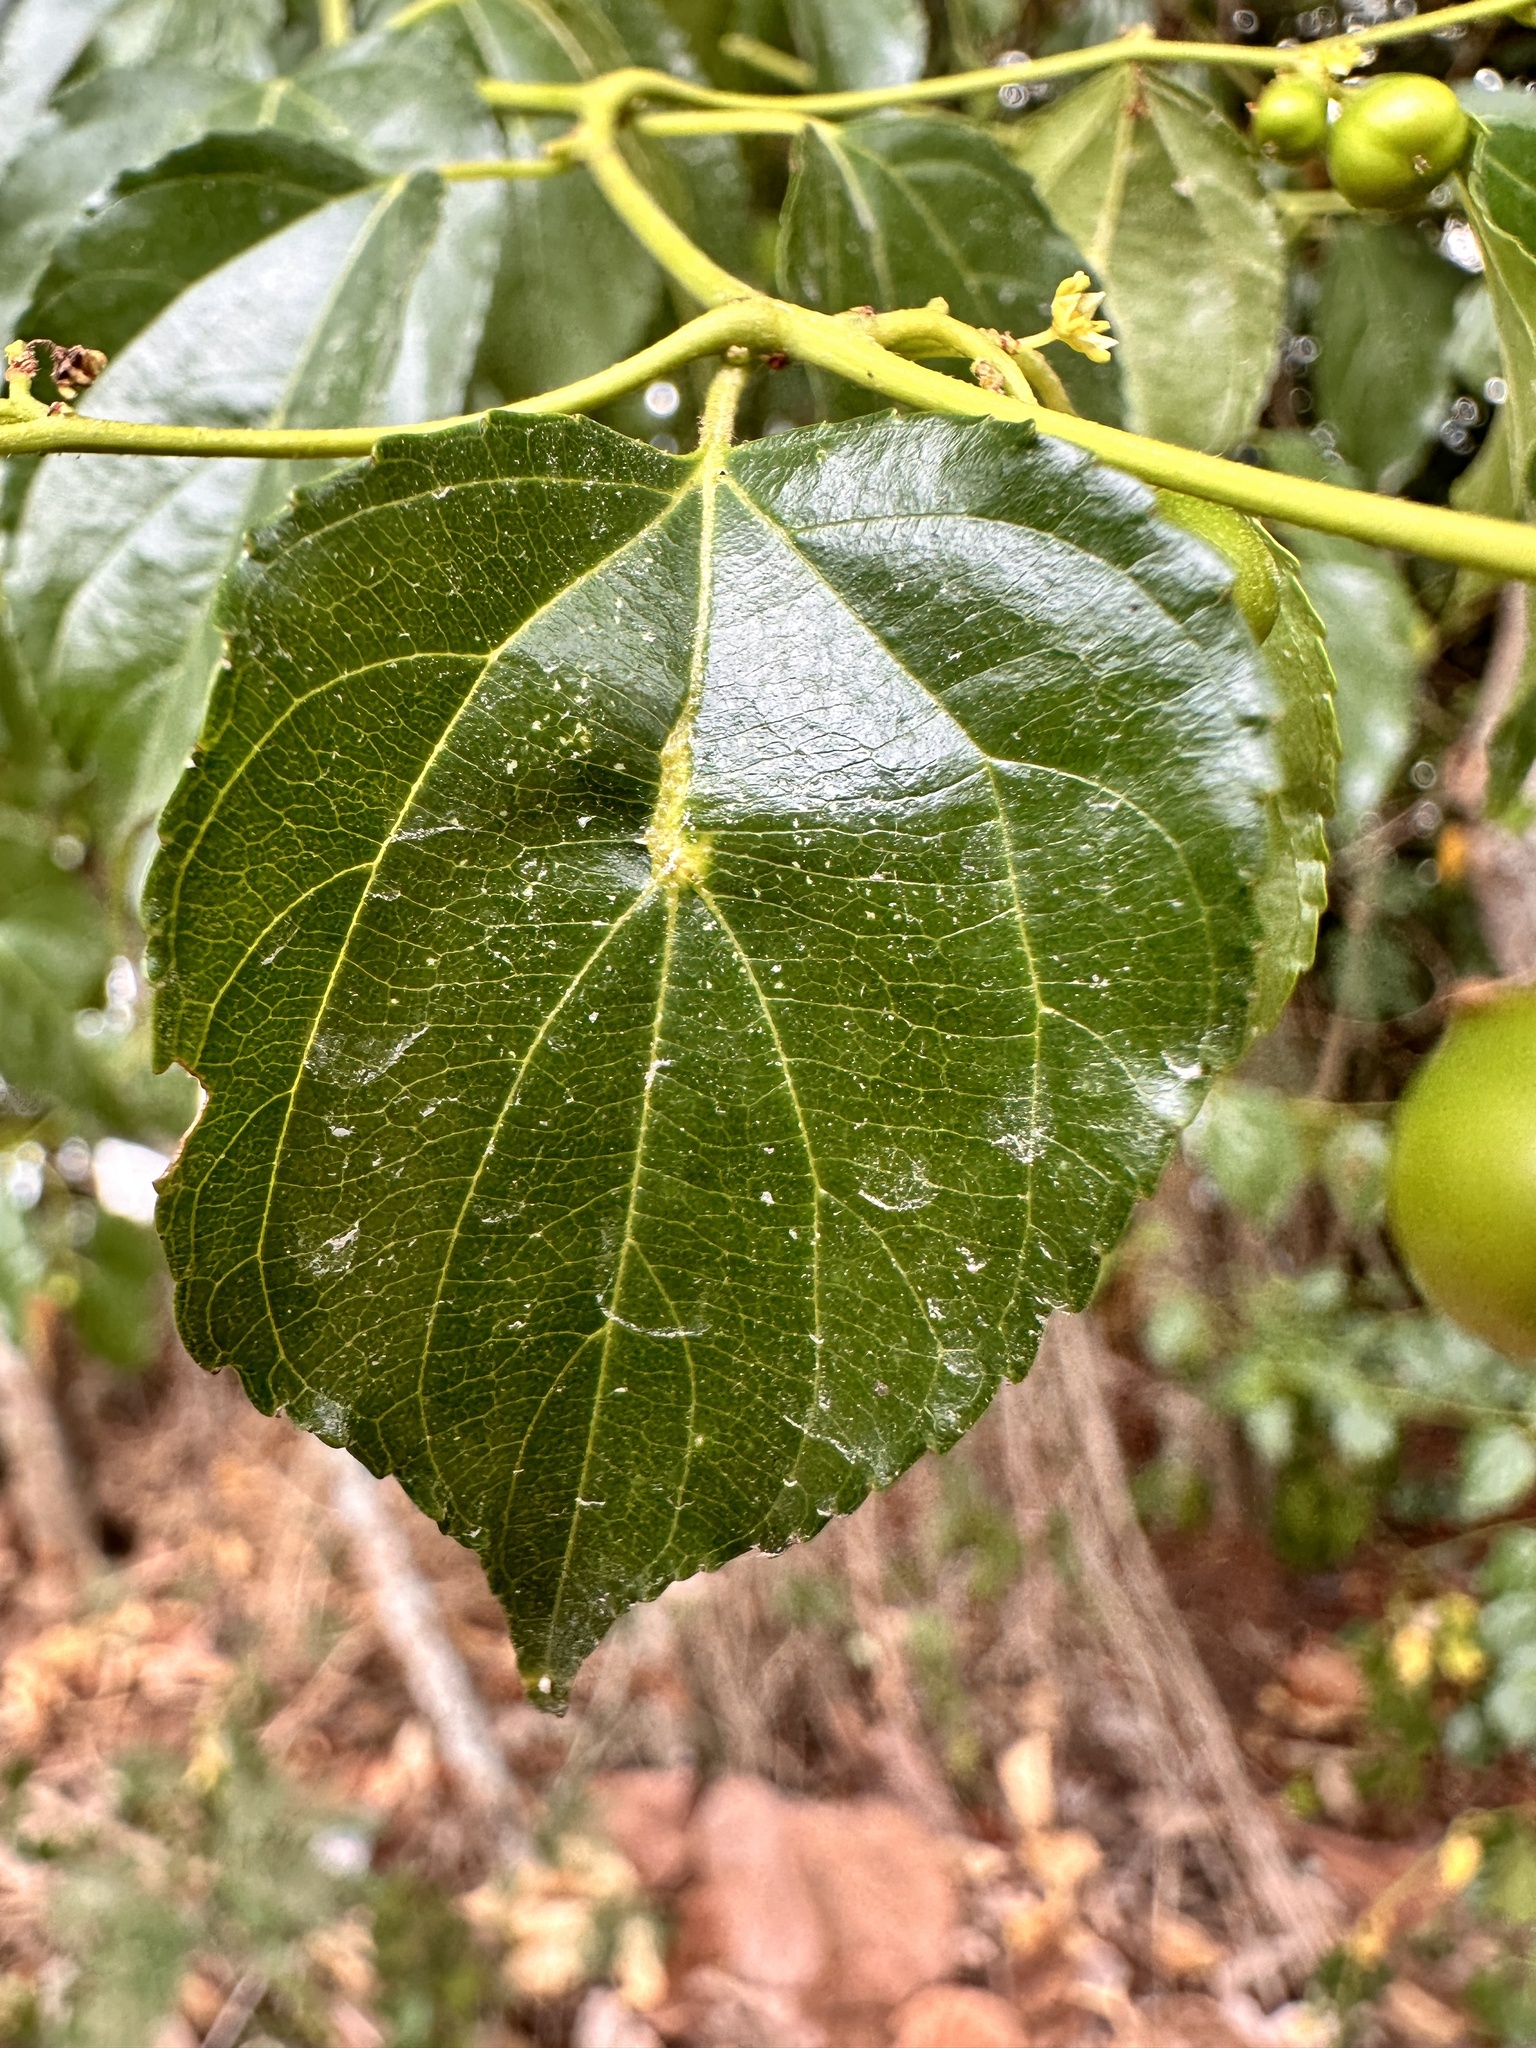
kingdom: Plantae
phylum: Tracheophyta
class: Magnoliopsida
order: Rosales
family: Rhamnaceae
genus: Colubrina
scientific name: Colubrina asiatica
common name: Asian nakedwood
